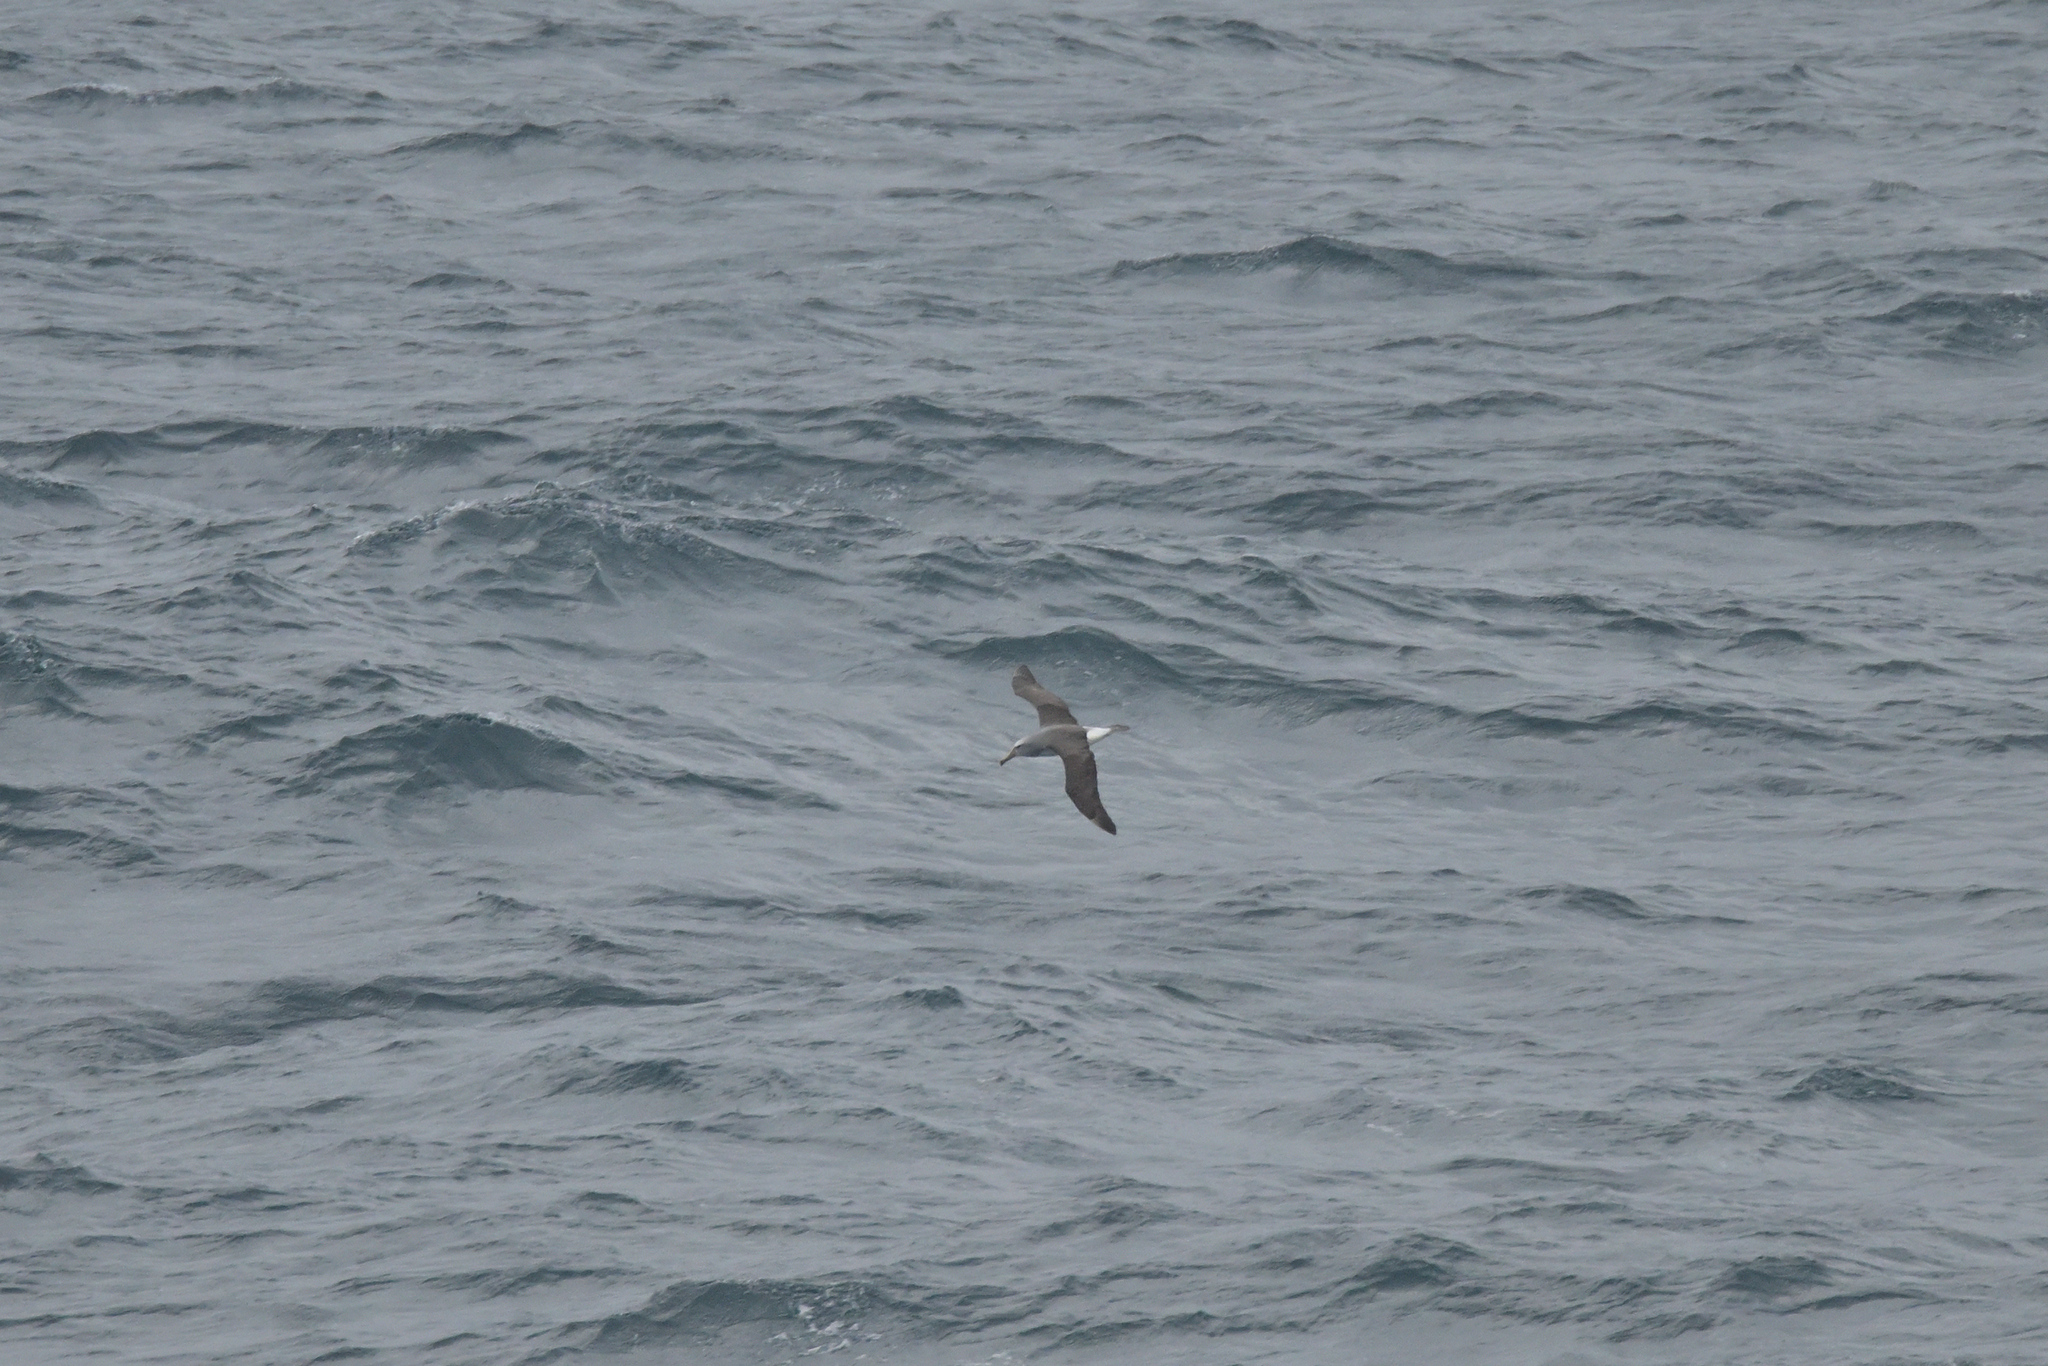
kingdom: Animalia
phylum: Chordata
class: Aves
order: Procellariiformes
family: Diomedeidae
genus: Thalassarche
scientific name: Thalassarche salvini
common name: Salvin's albatross
